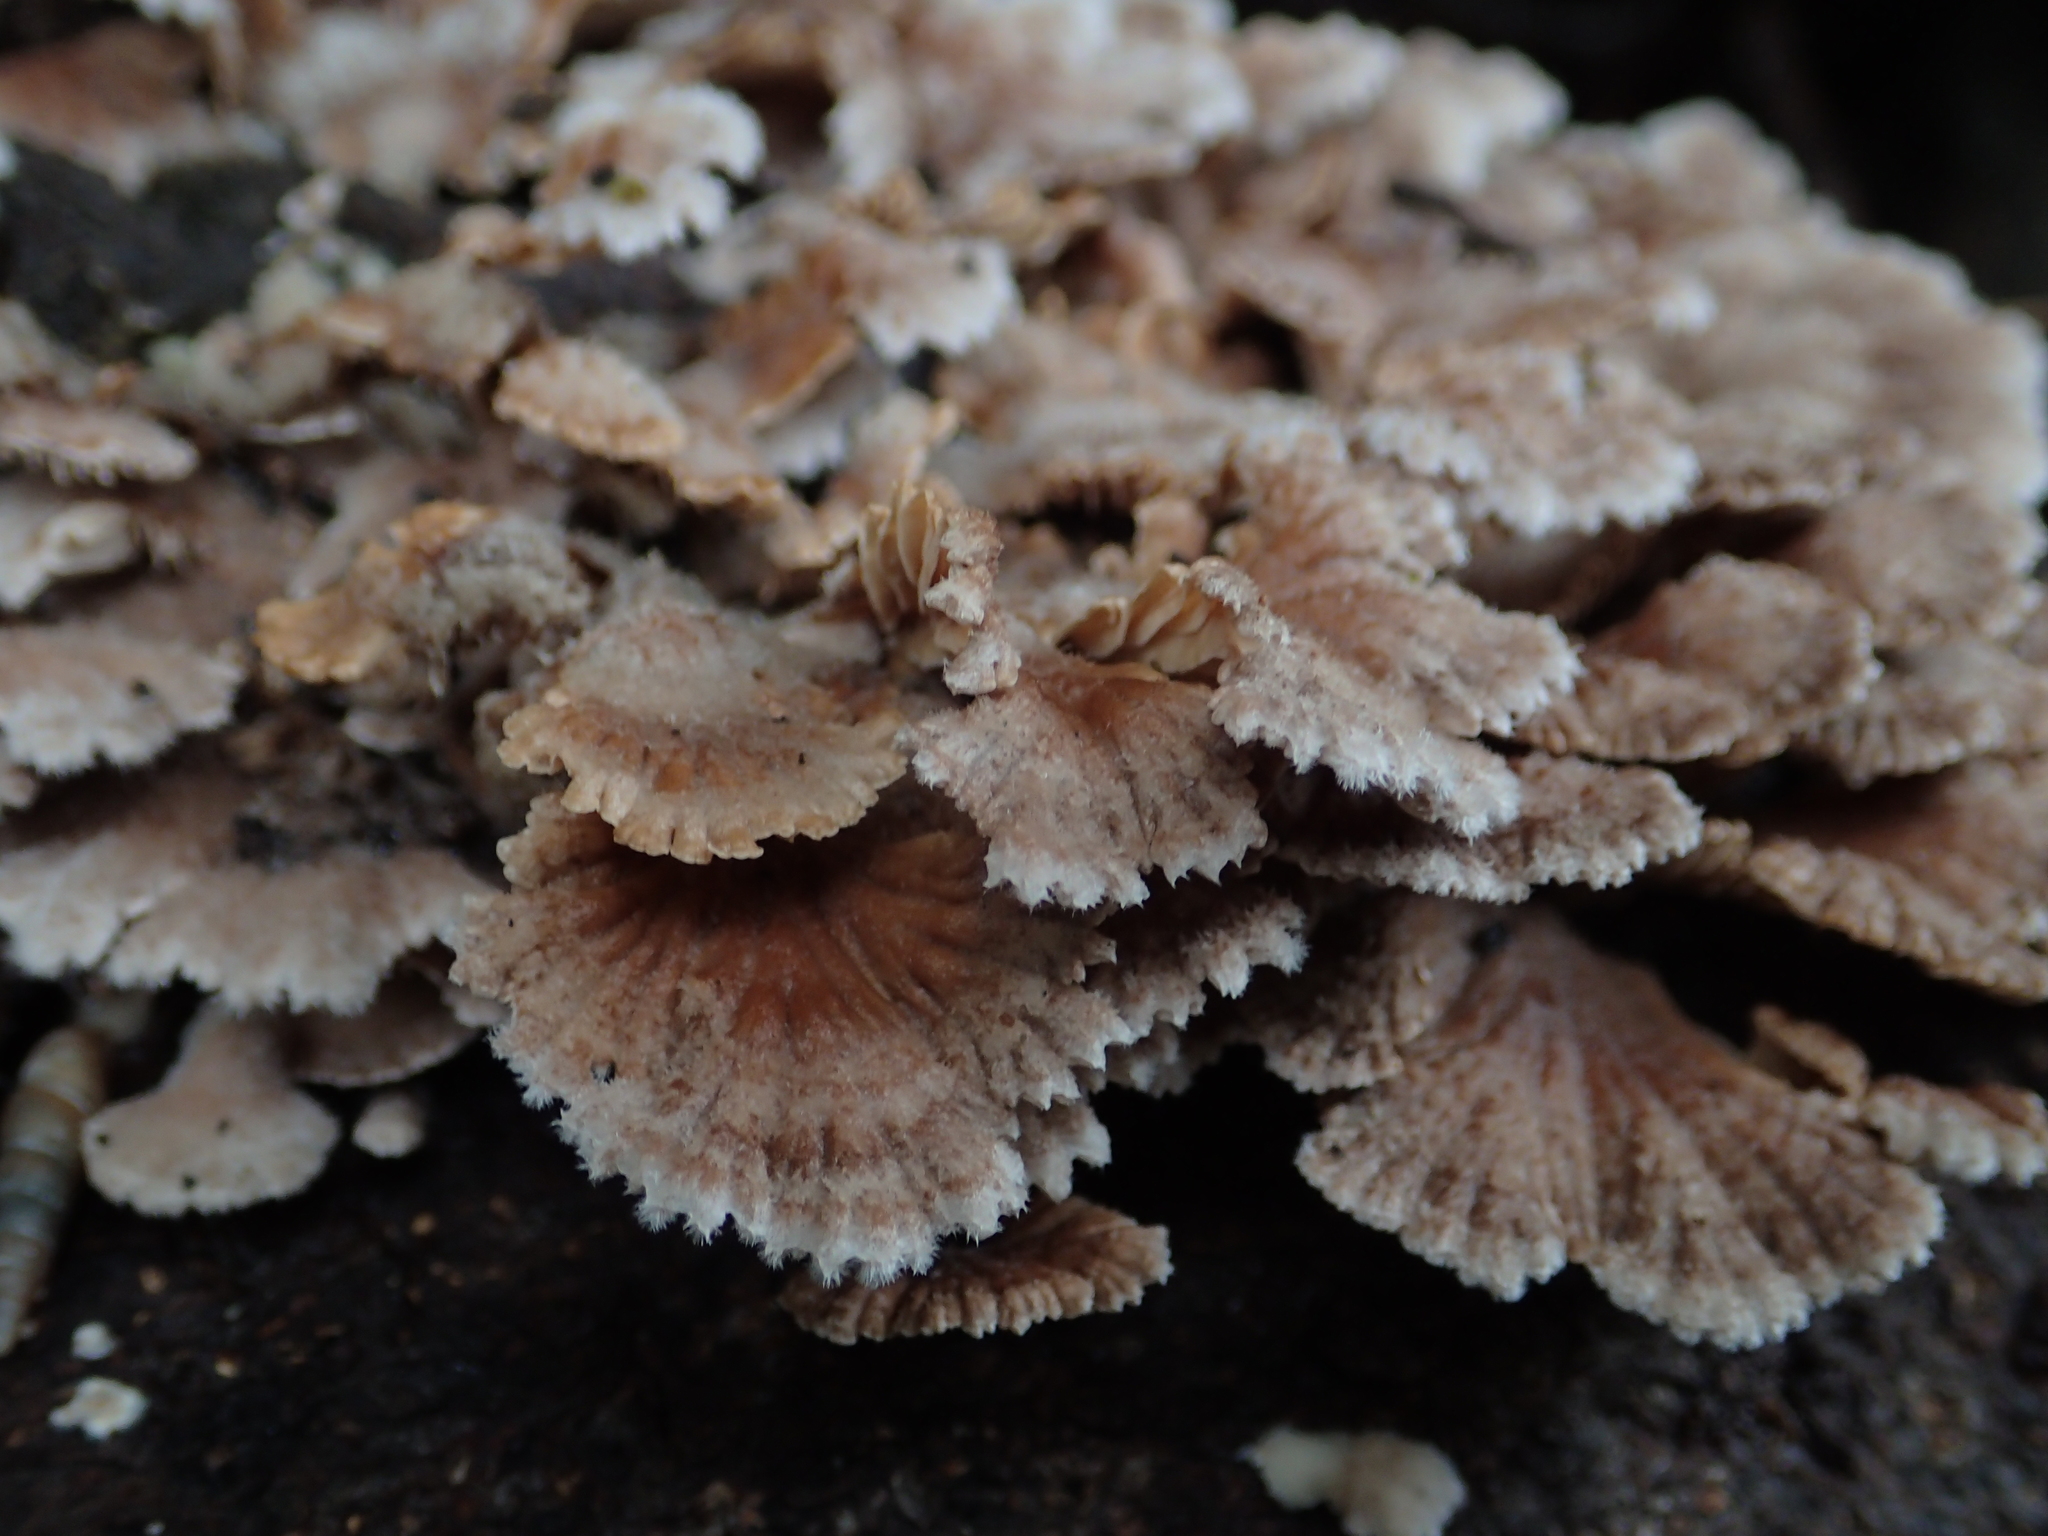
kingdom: Fungi
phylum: Basidiomycota
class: Agaricomycetes
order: Agaricales
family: Schizophyllaceae
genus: Schizophyllum
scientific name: Schizophyllum commune
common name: Common porecrust
